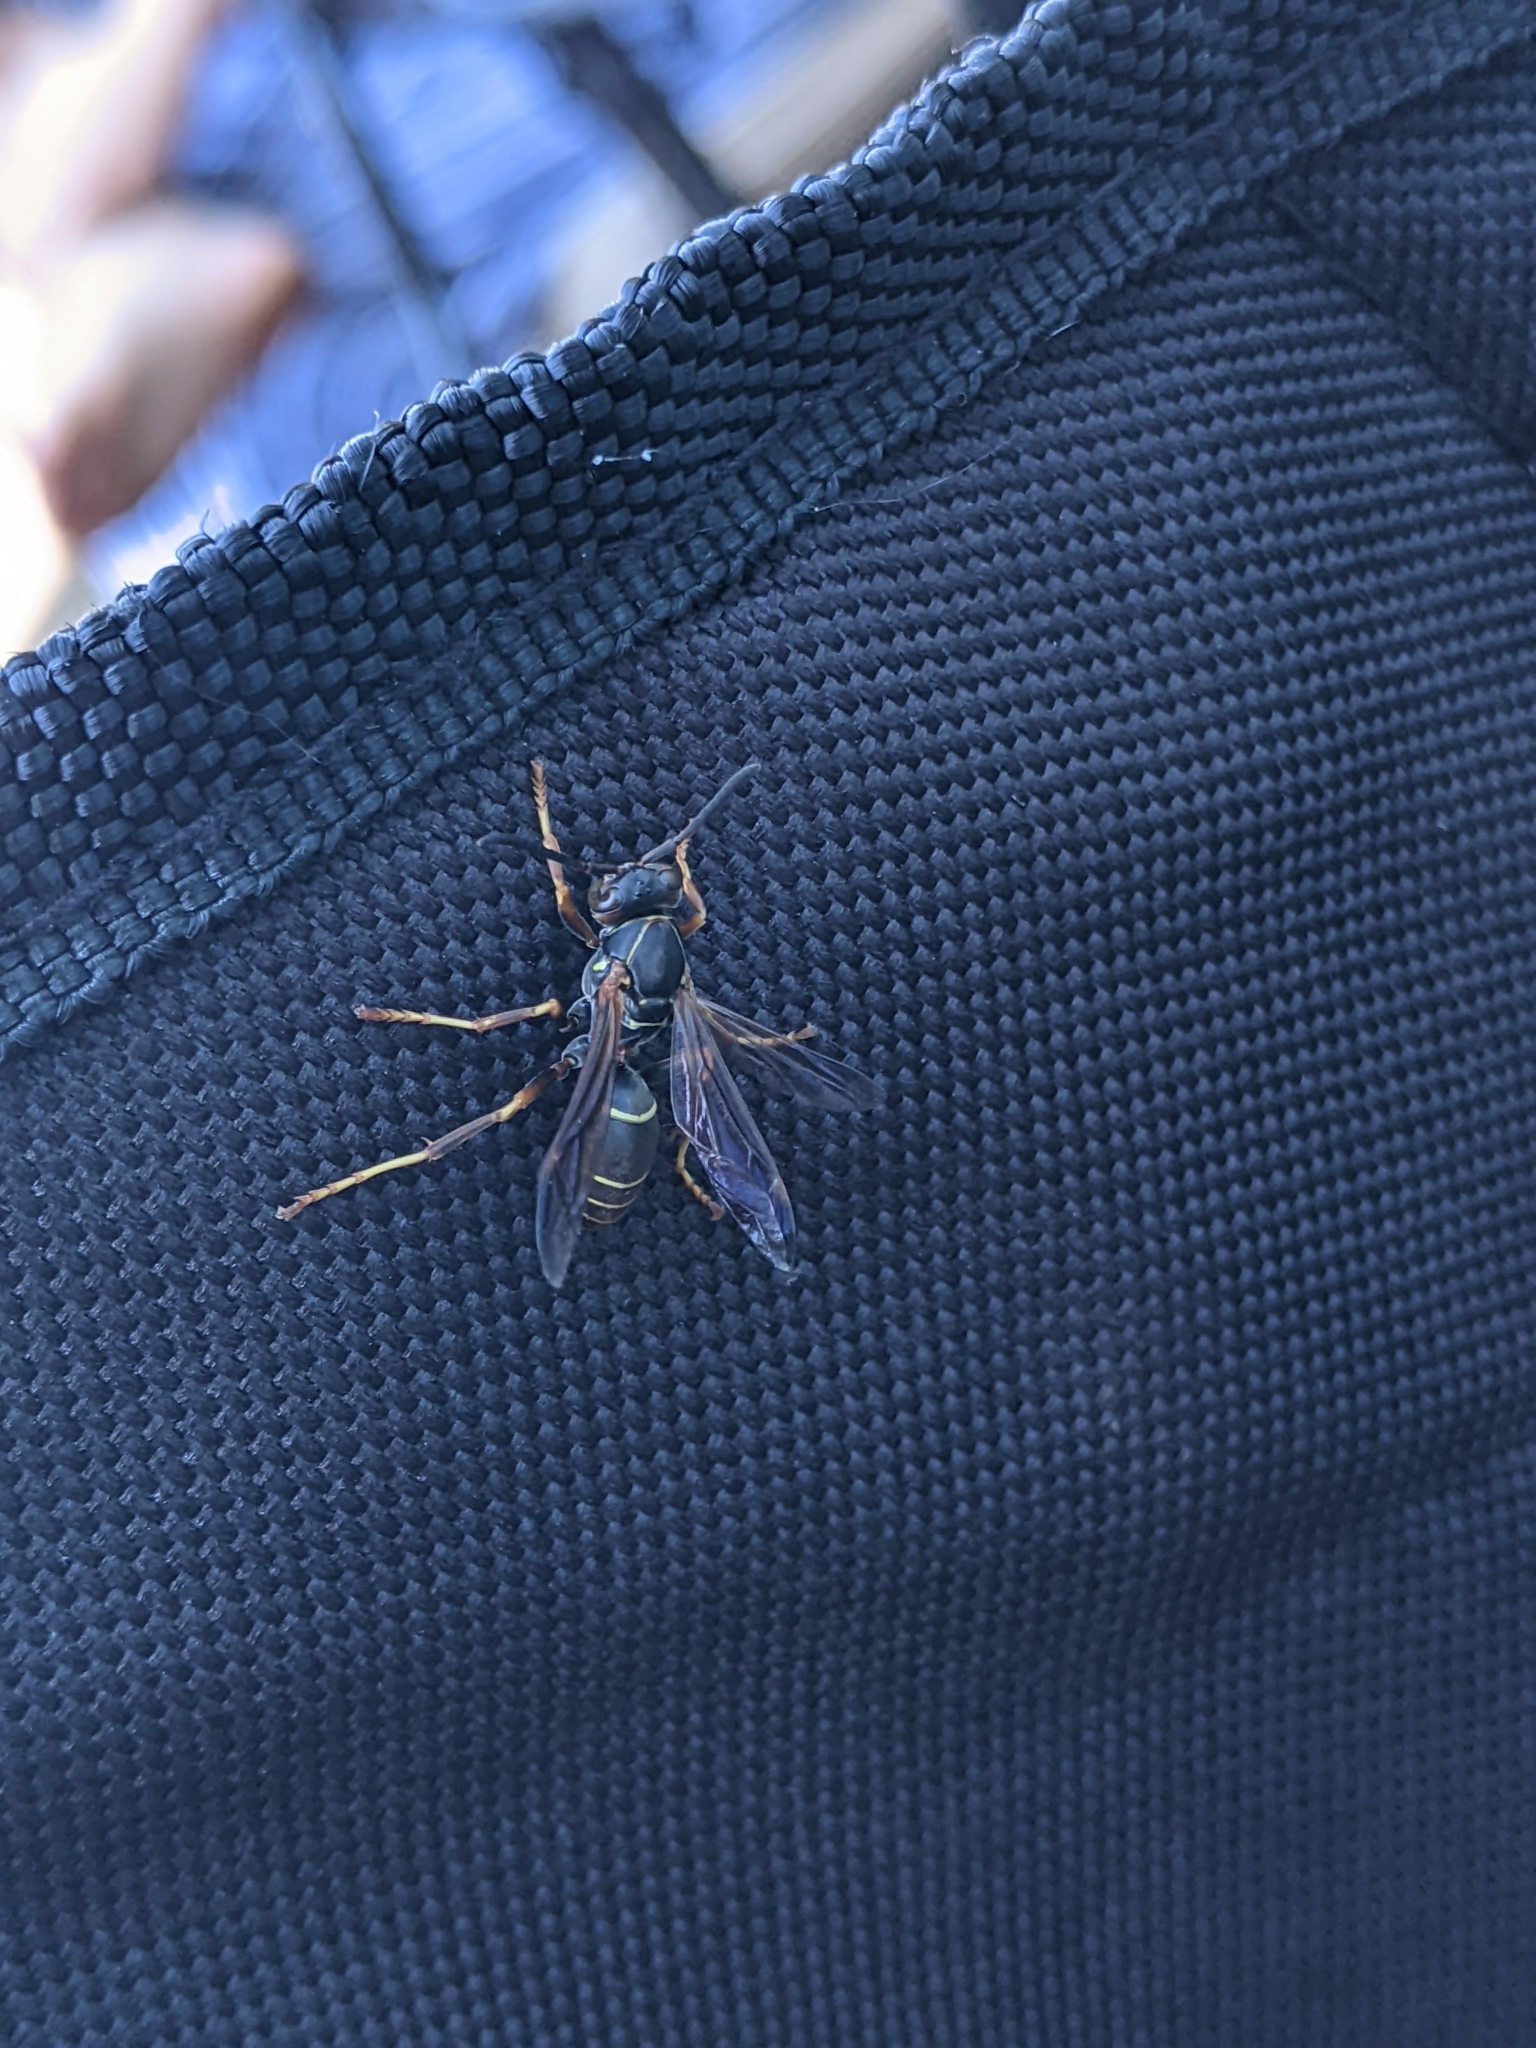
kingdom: Animalia
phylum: Arthropoda
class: Insecta
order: Hymenoptera
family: Eumenidae
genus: Polistes
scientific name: Polistes fuscatus
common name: Dark paper wasp
